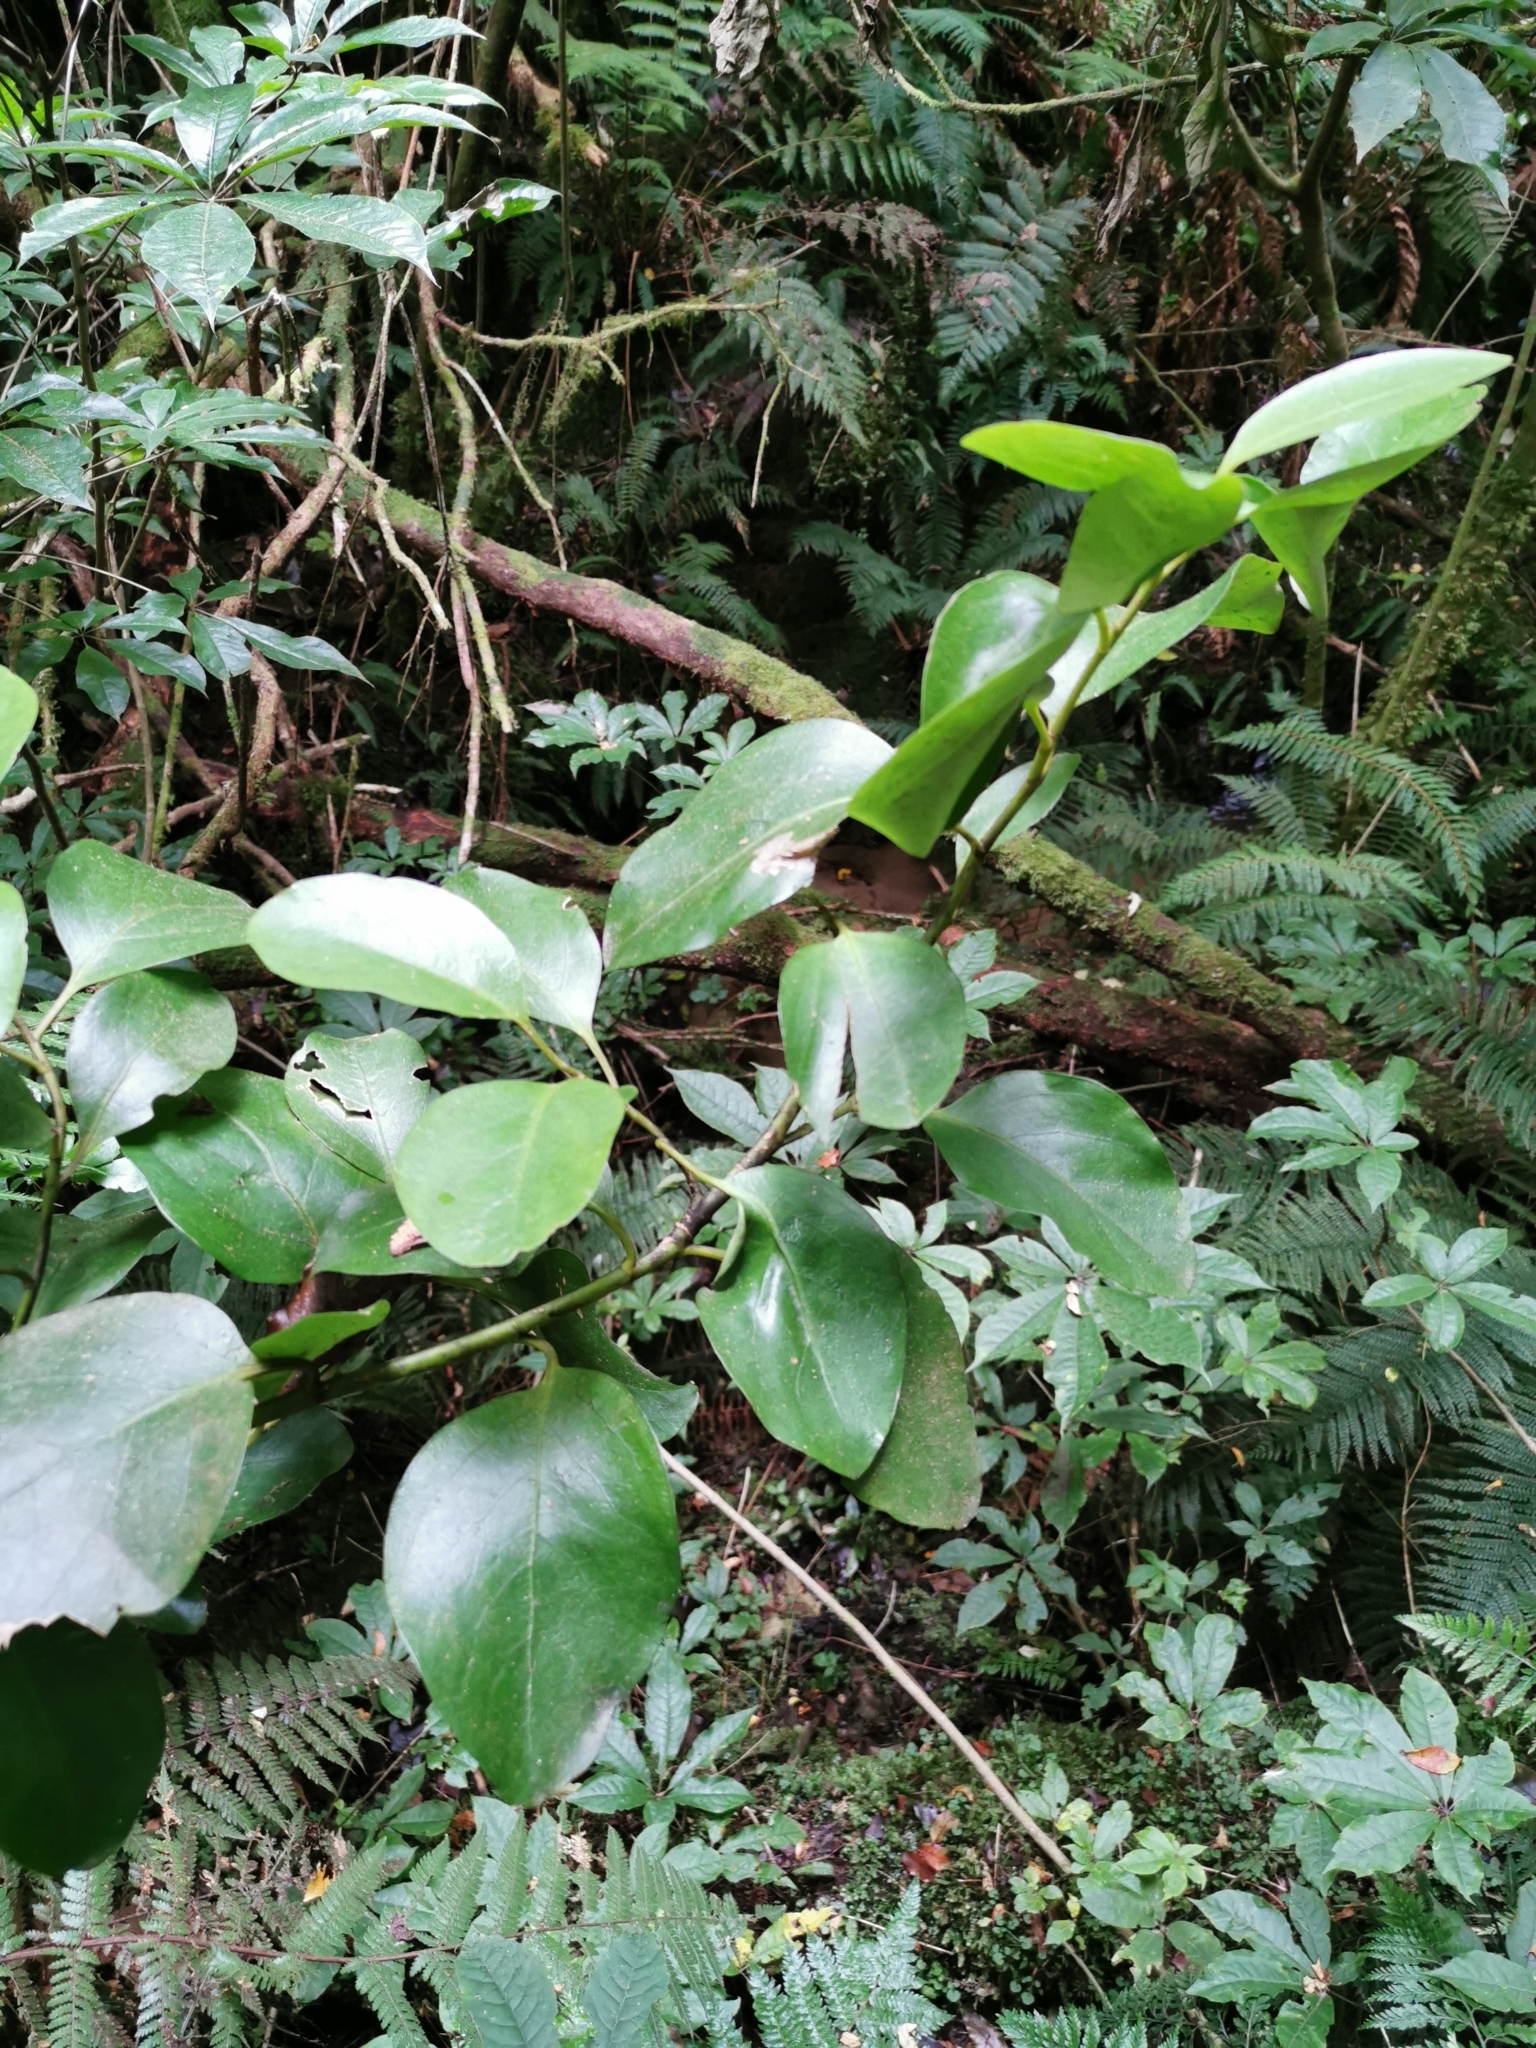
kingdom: Plantae
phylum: Tracheophyta
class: Magnoliopsida
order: Apiales
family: Griseliniaceae
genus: Griselinia
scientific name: Griselinia littoralis
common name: New zealand broadleaf
